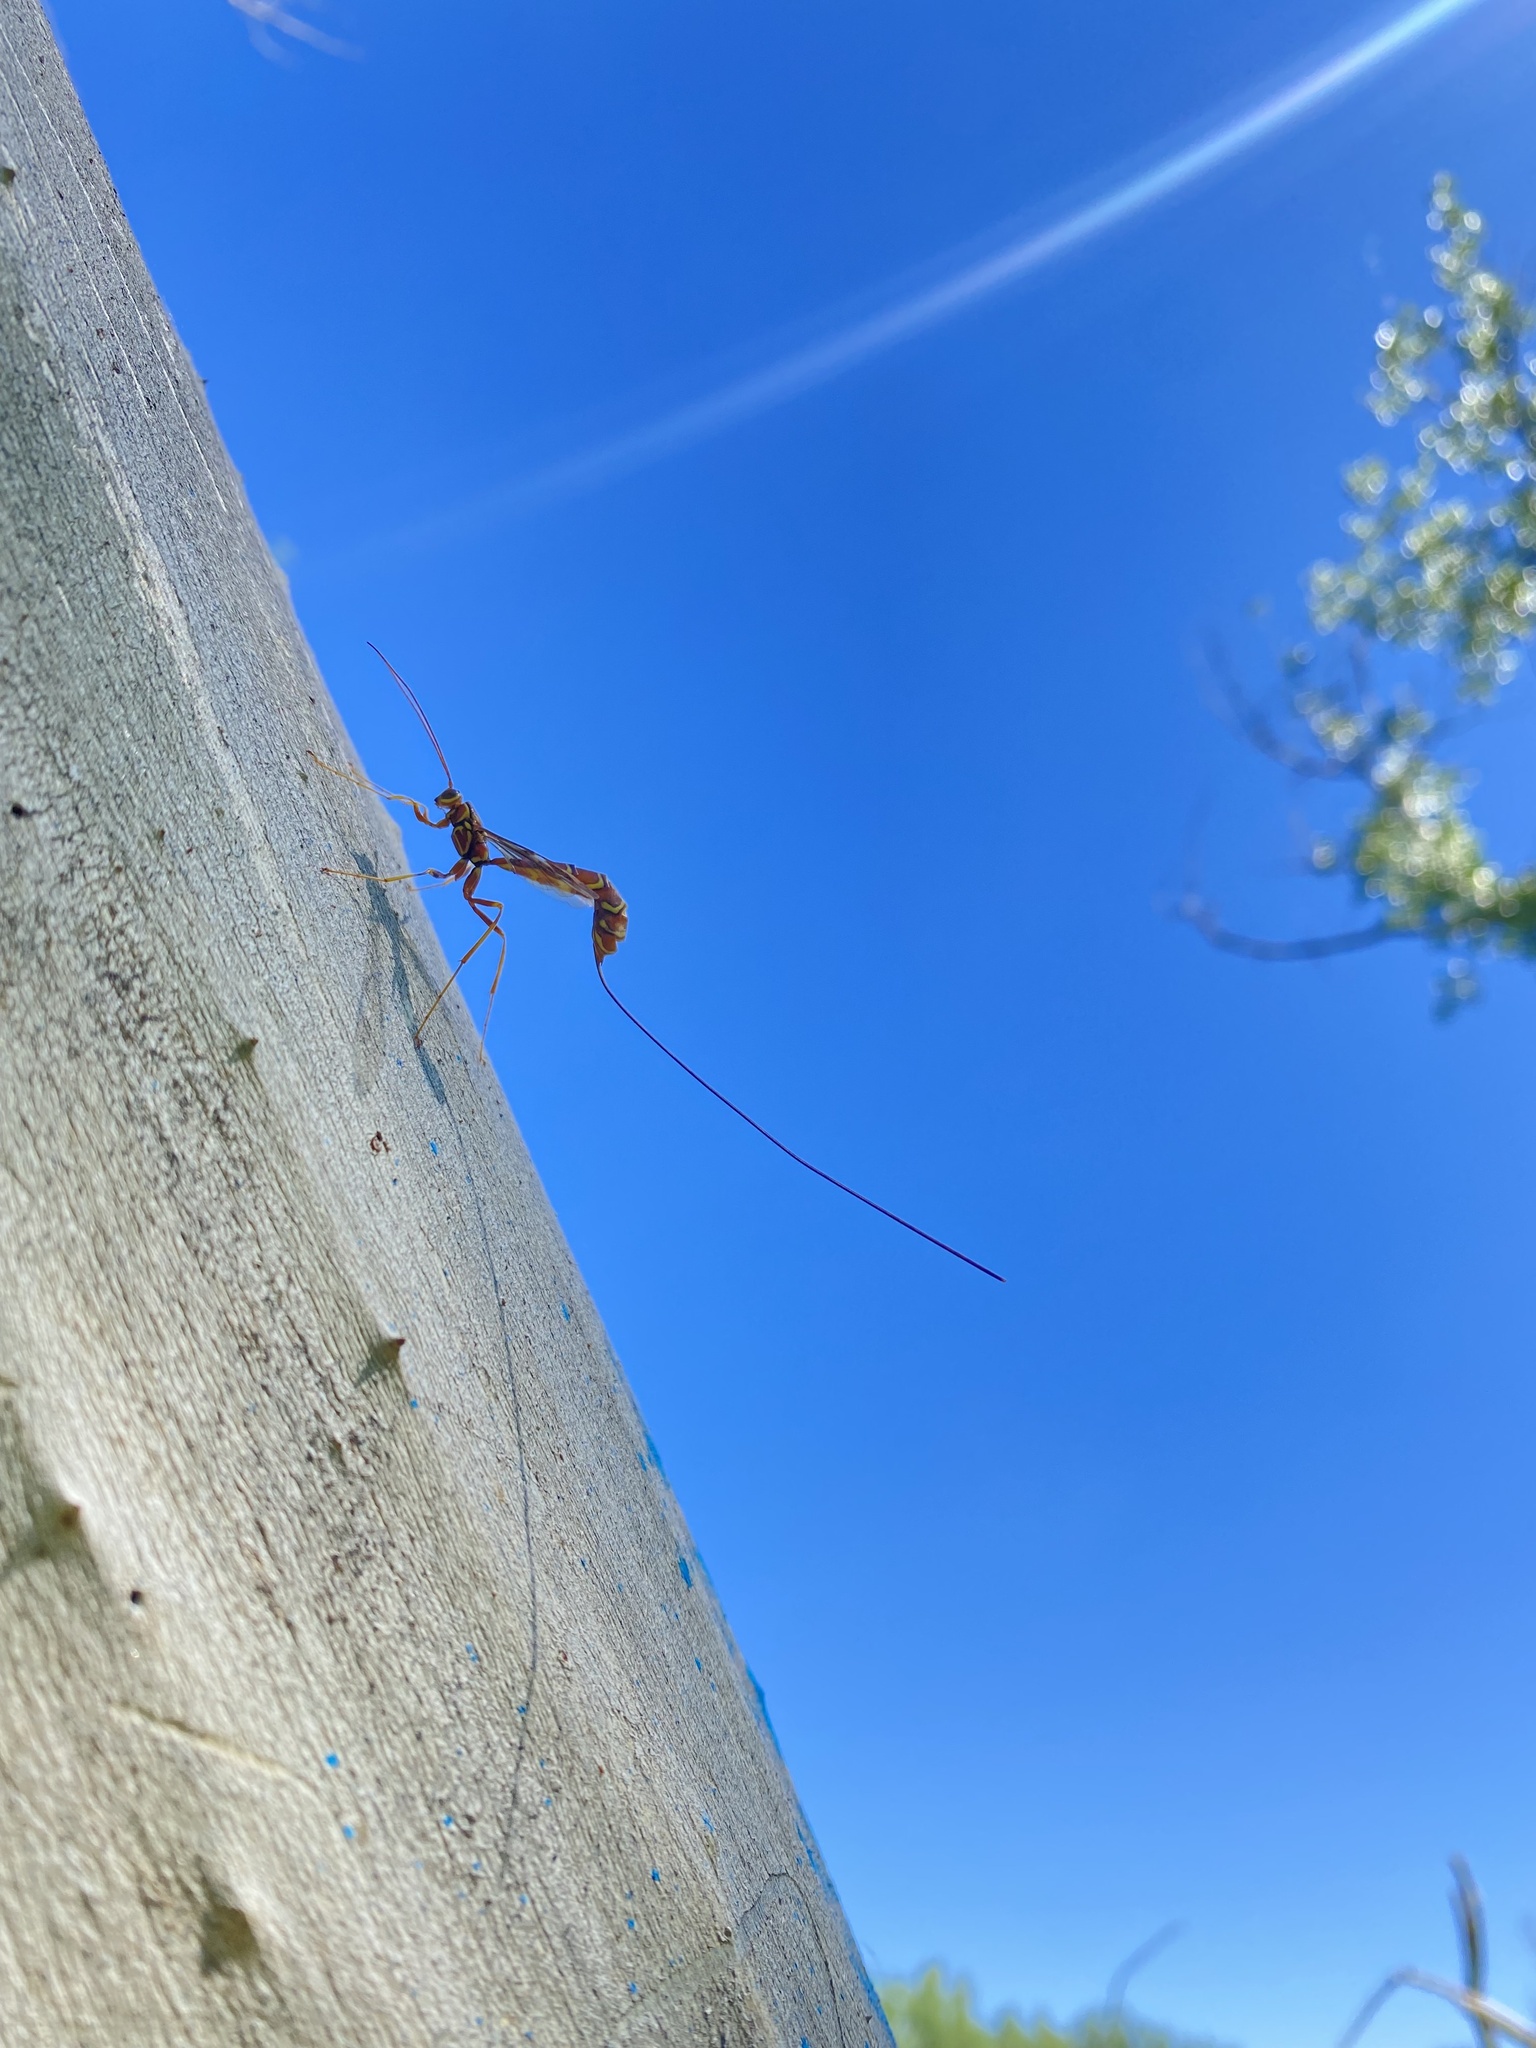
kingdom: Animalia
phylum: Arthropoda
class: Insecta
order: Hymenoptera
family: Ichneumonidae
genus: Megarhyssa
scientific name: Megarhyssa macrura
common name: Long-tailed giant ichneumonid wasp
